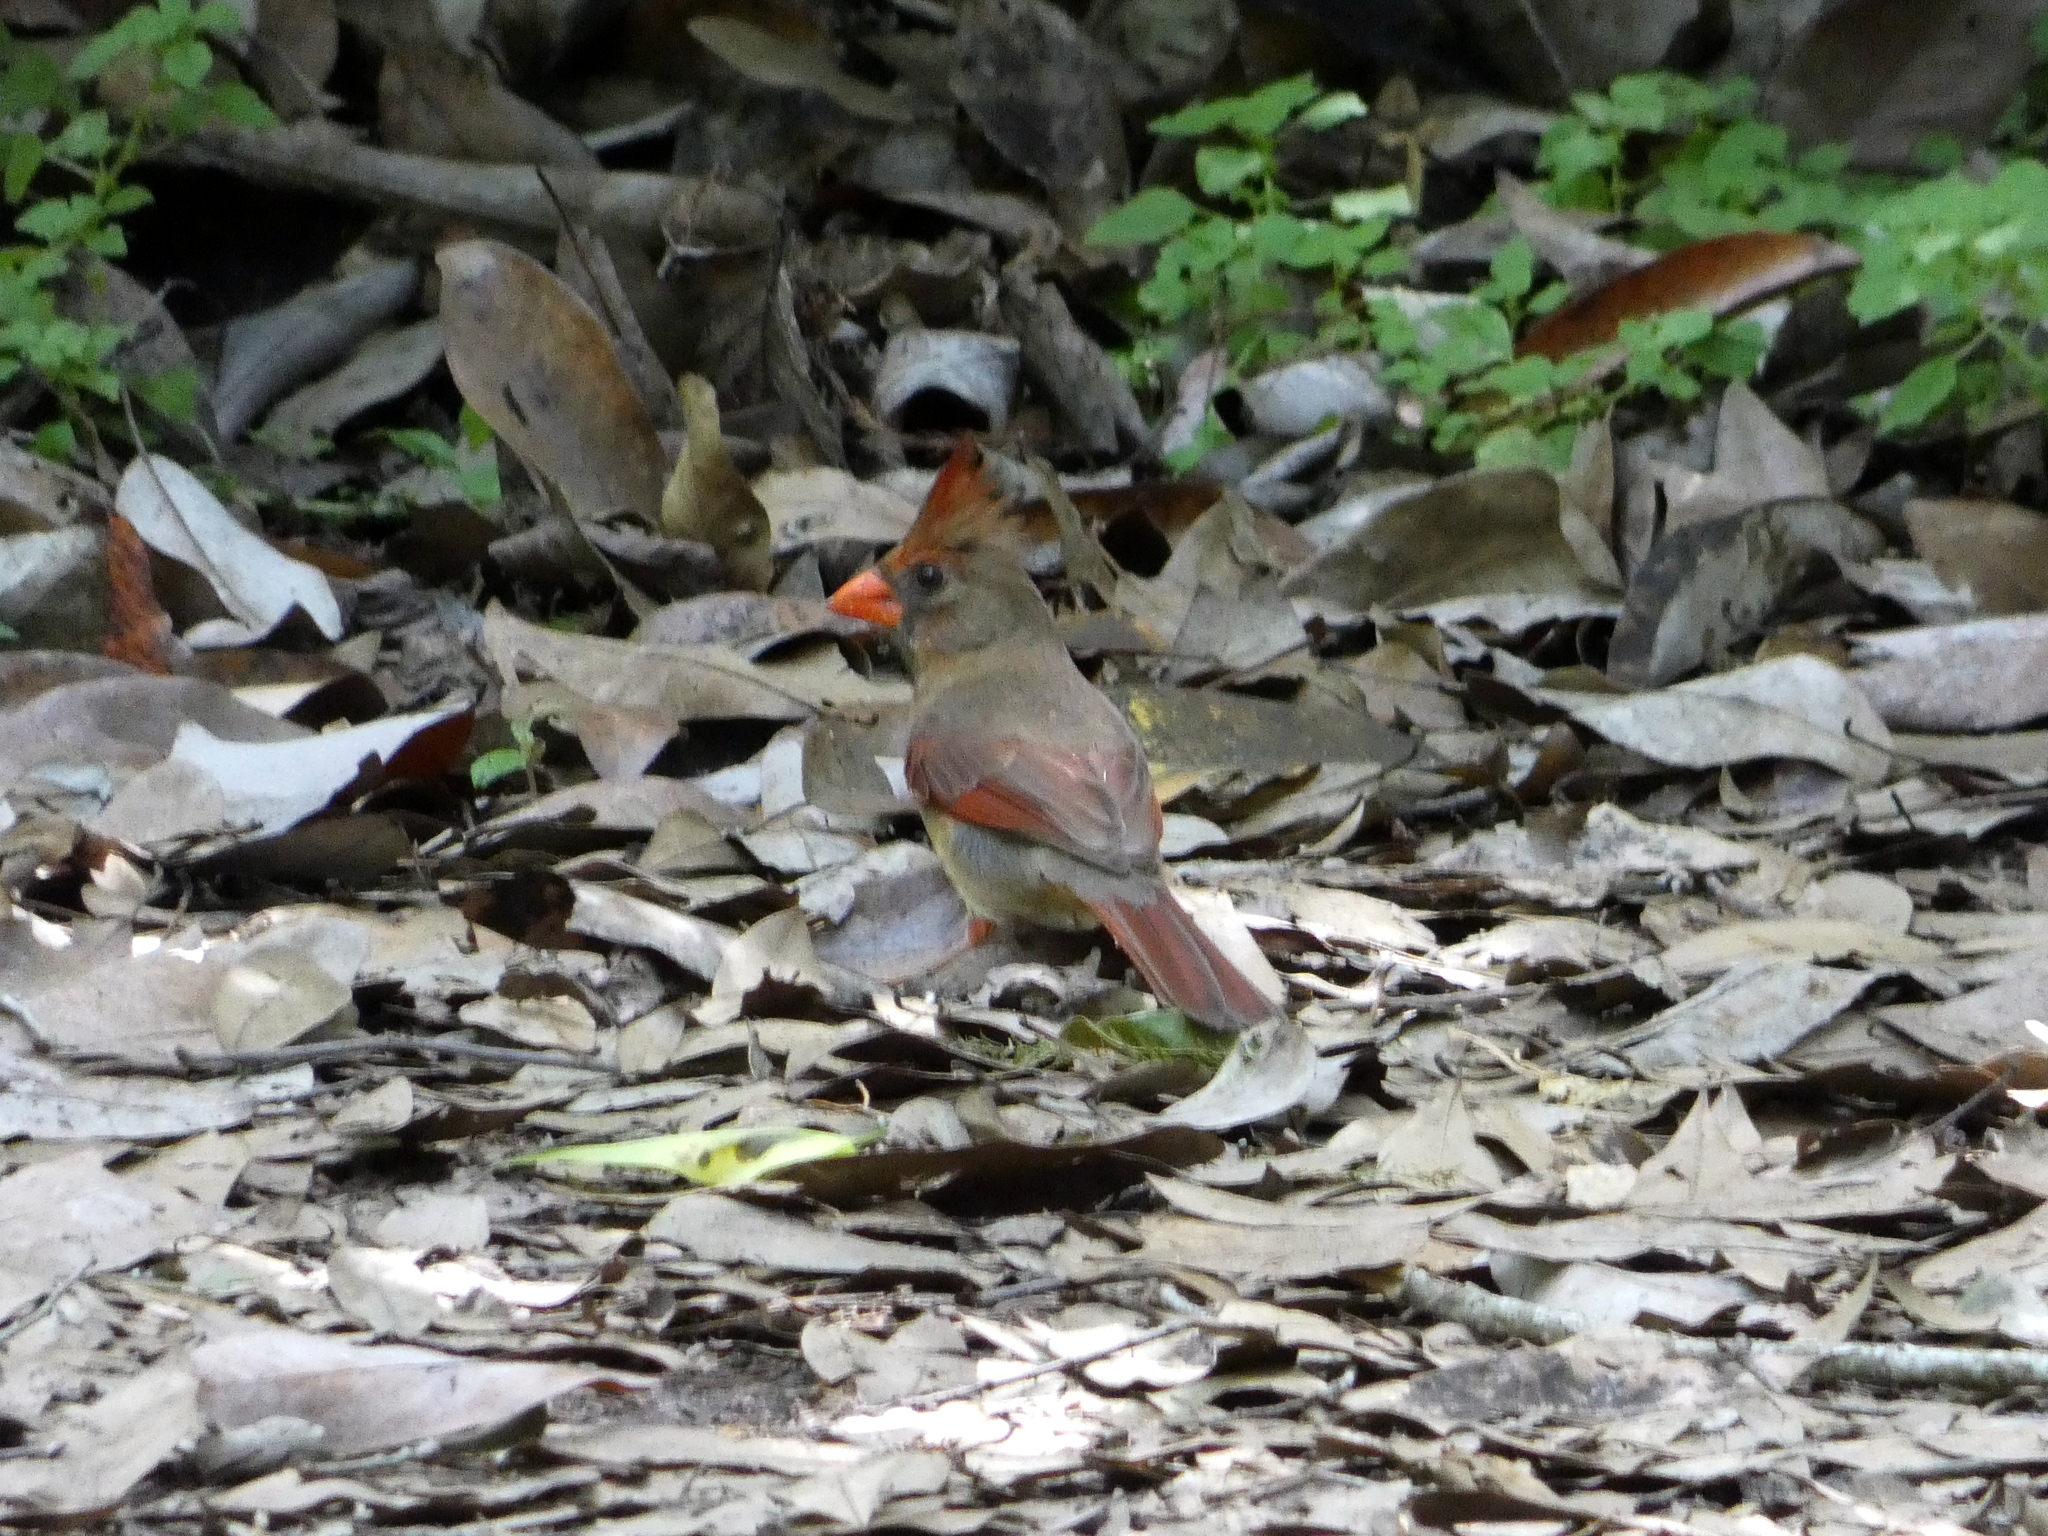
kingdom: Animalia
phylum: Chordata
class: Aves
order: Passeriformes
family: Cardinalidae
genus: Cardinalis
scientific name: Cardinalis cardinalis
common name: Northern cardinal
